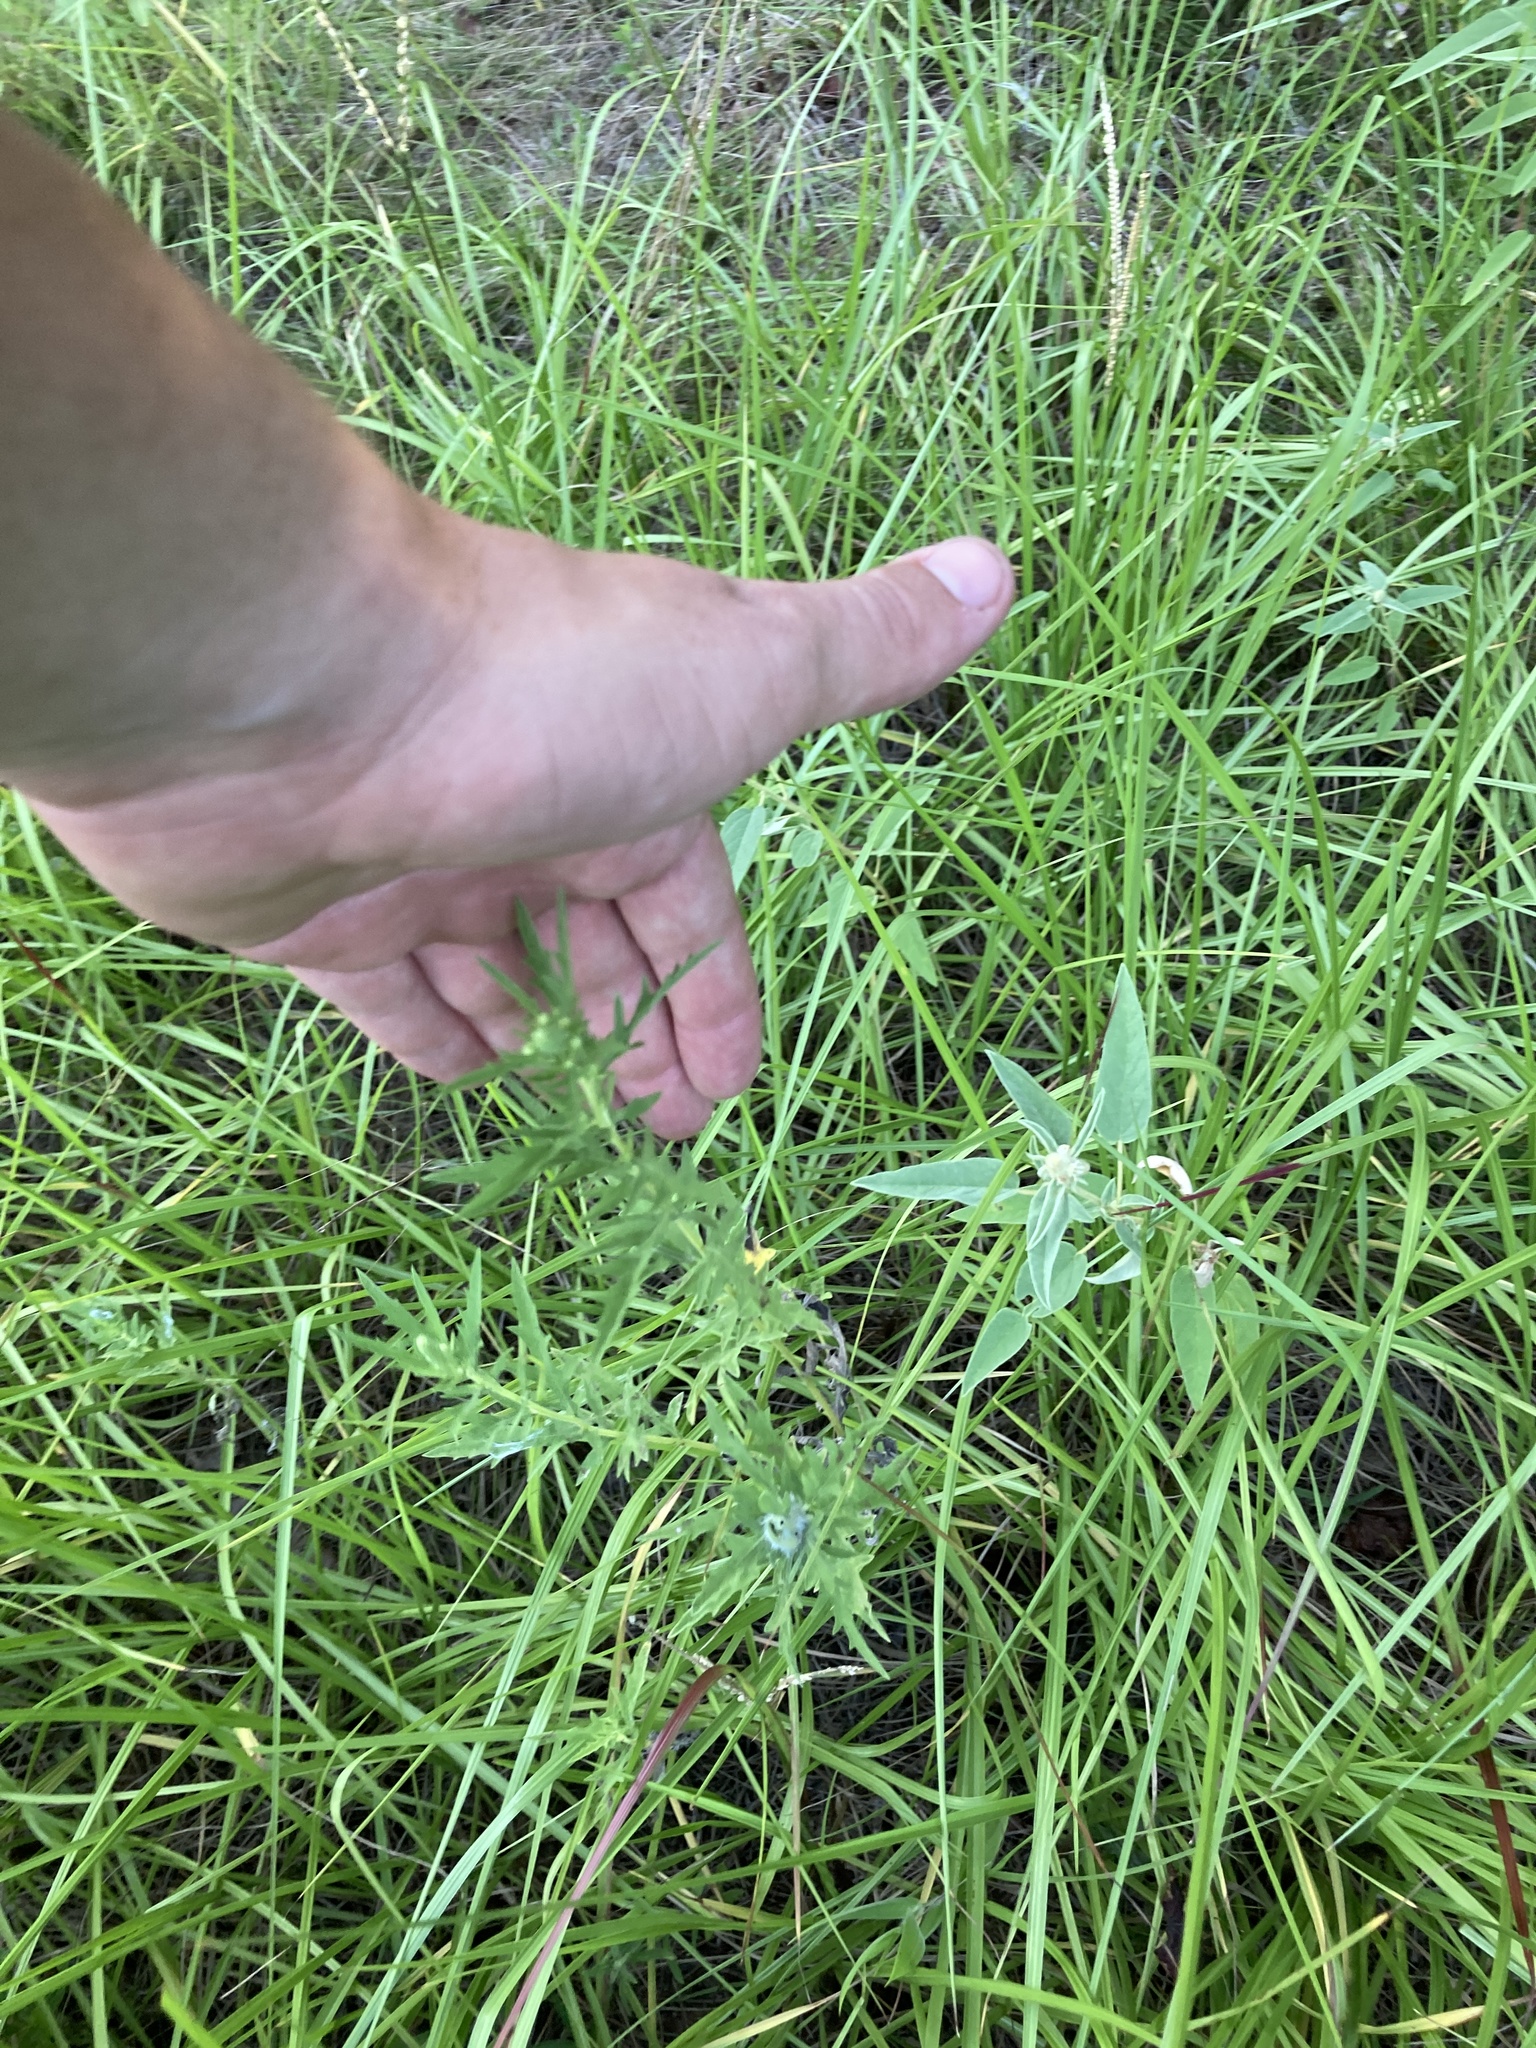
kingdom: Plantae
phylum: Tracheophyta
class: Magnoliopsida
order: Asterales
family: Asteraceae
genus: Ambrosia
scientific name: Ambrosia psilostachya
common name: Perennial ragweed
